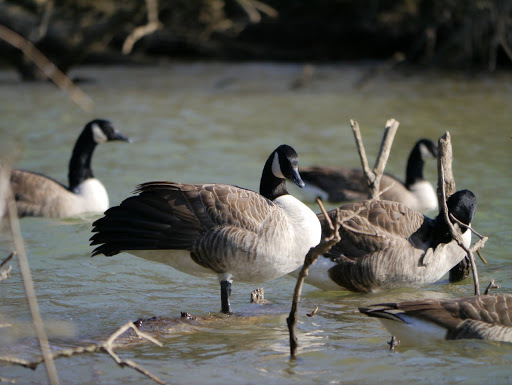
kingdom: Animalia
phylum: Chordata
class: Aves
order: Anseriformes
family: Anatidae
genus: Branta
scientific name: Branta canadensis
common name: Canada goose
